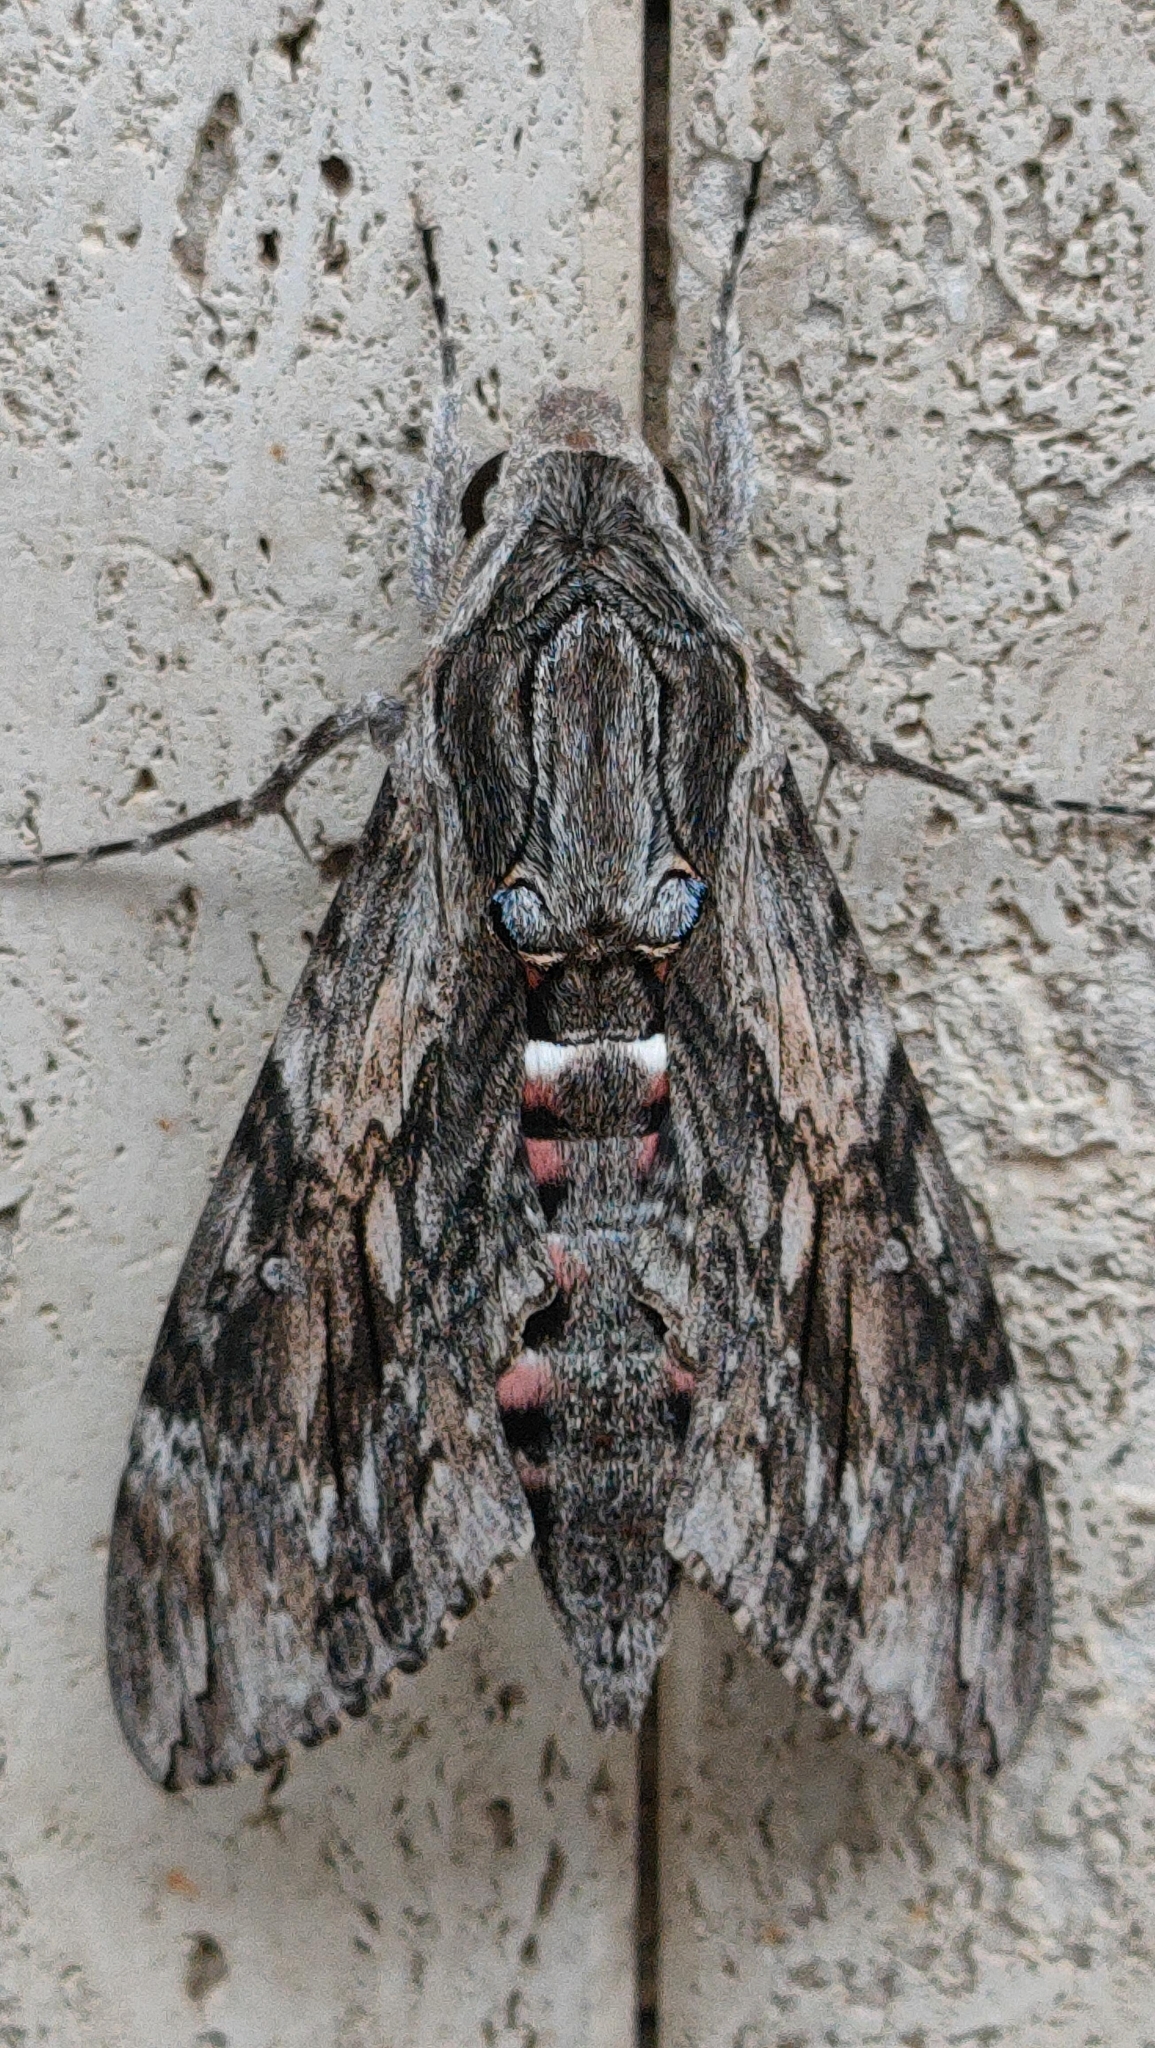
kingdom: Animalia
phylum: Arthropoda
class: Insecta
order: Lepidoptera
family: Sphingidae
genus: Agrius
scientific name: Agrius convolvuli
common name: Convolvulus hawkmoth
